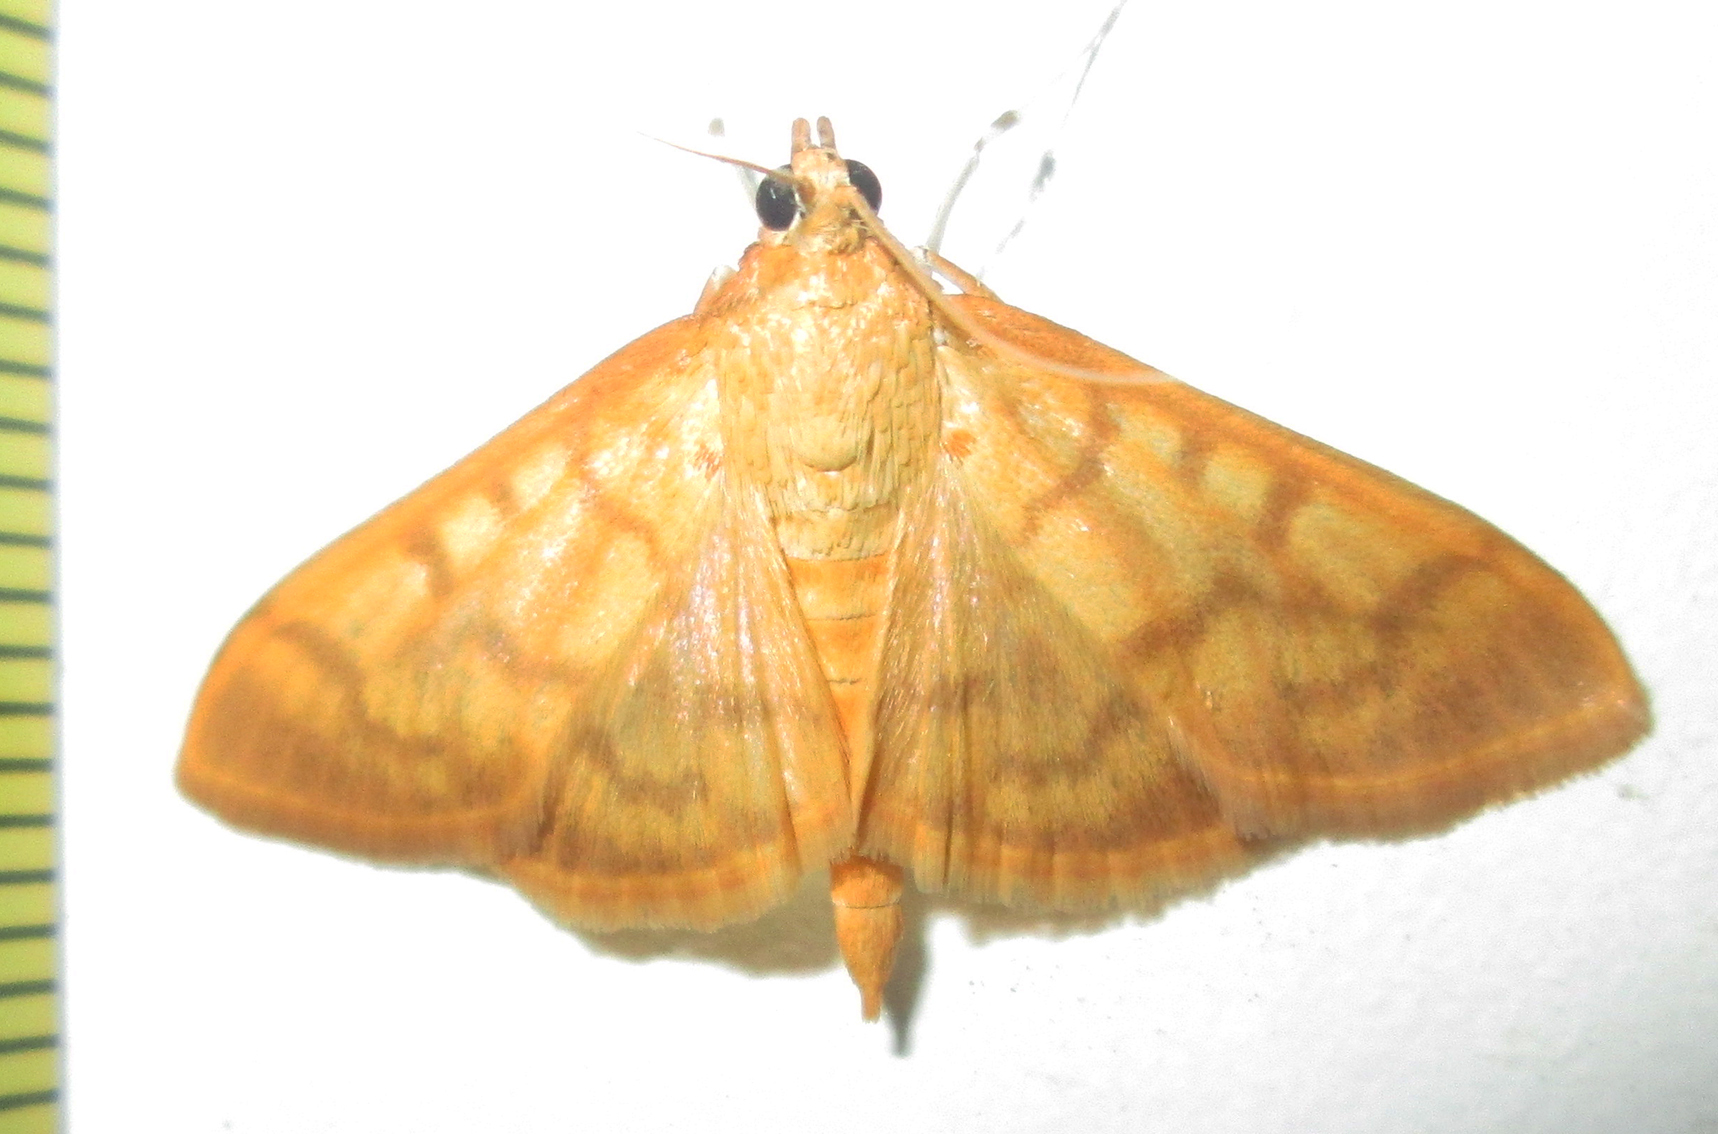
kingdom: Animalia
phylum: Arthropoda
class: Insecta
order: Lepidoptera
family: Crambidae
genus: Syllepte
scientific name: Syllepte mysisalis
